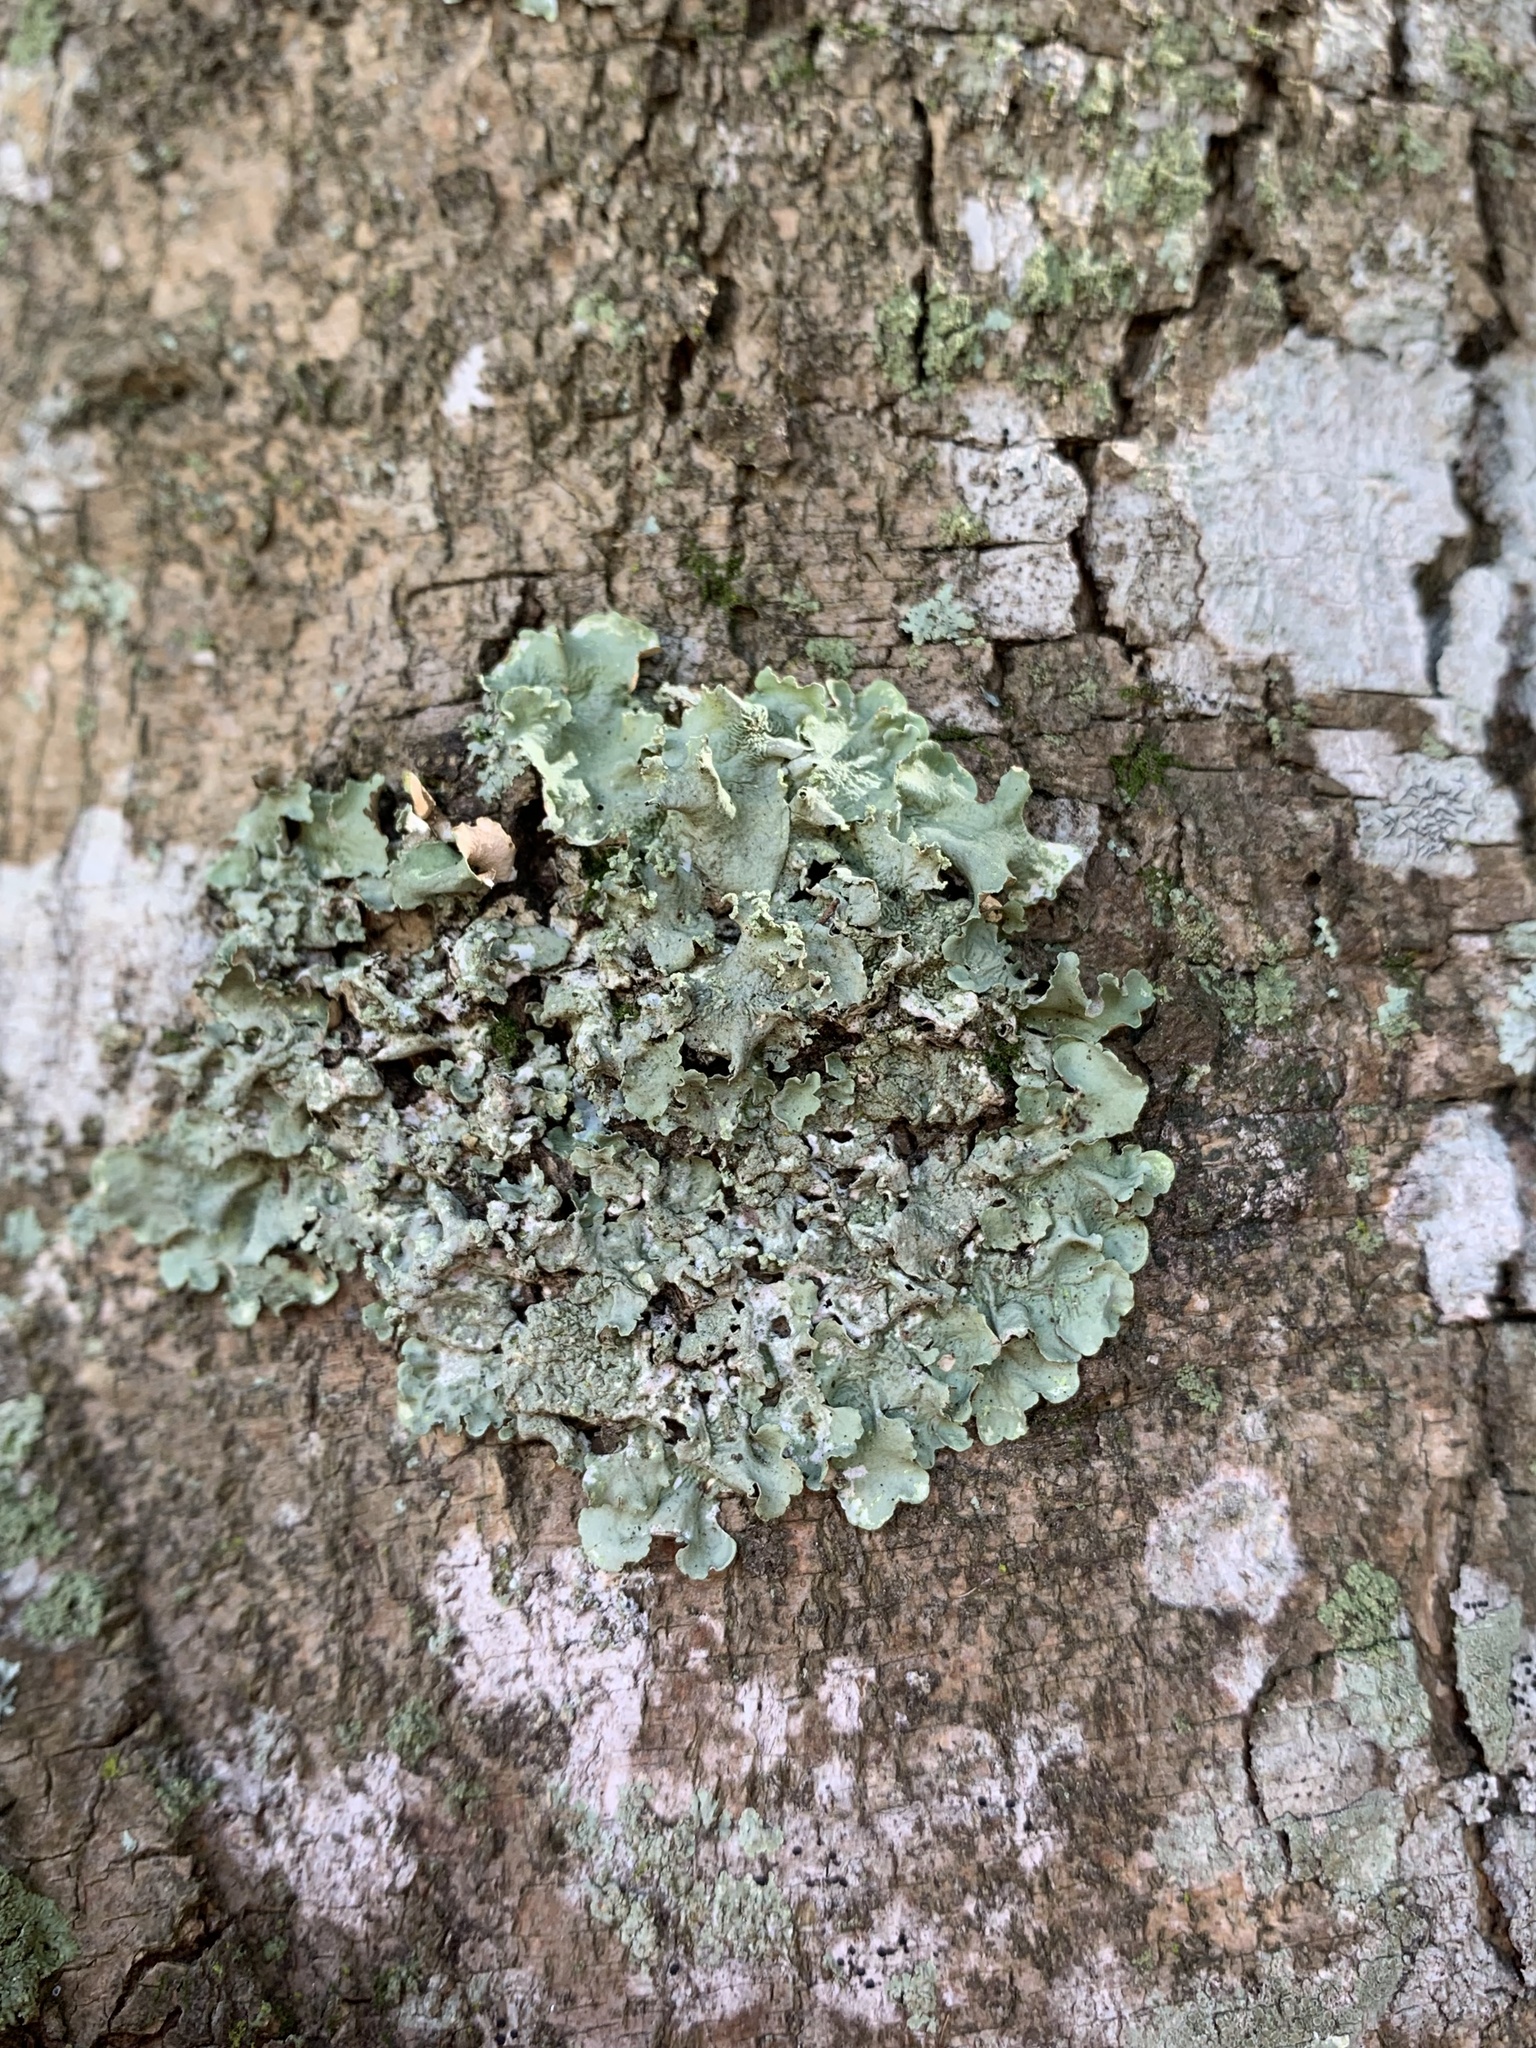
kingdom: Fungi
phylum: Ascomycota
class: Lecanoromycetes
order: Lecanorales
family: Parmeliaceae
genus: Flavopunctelia
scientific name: Flavopunctelia soredica
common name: Powder-edged speckled greenshield
